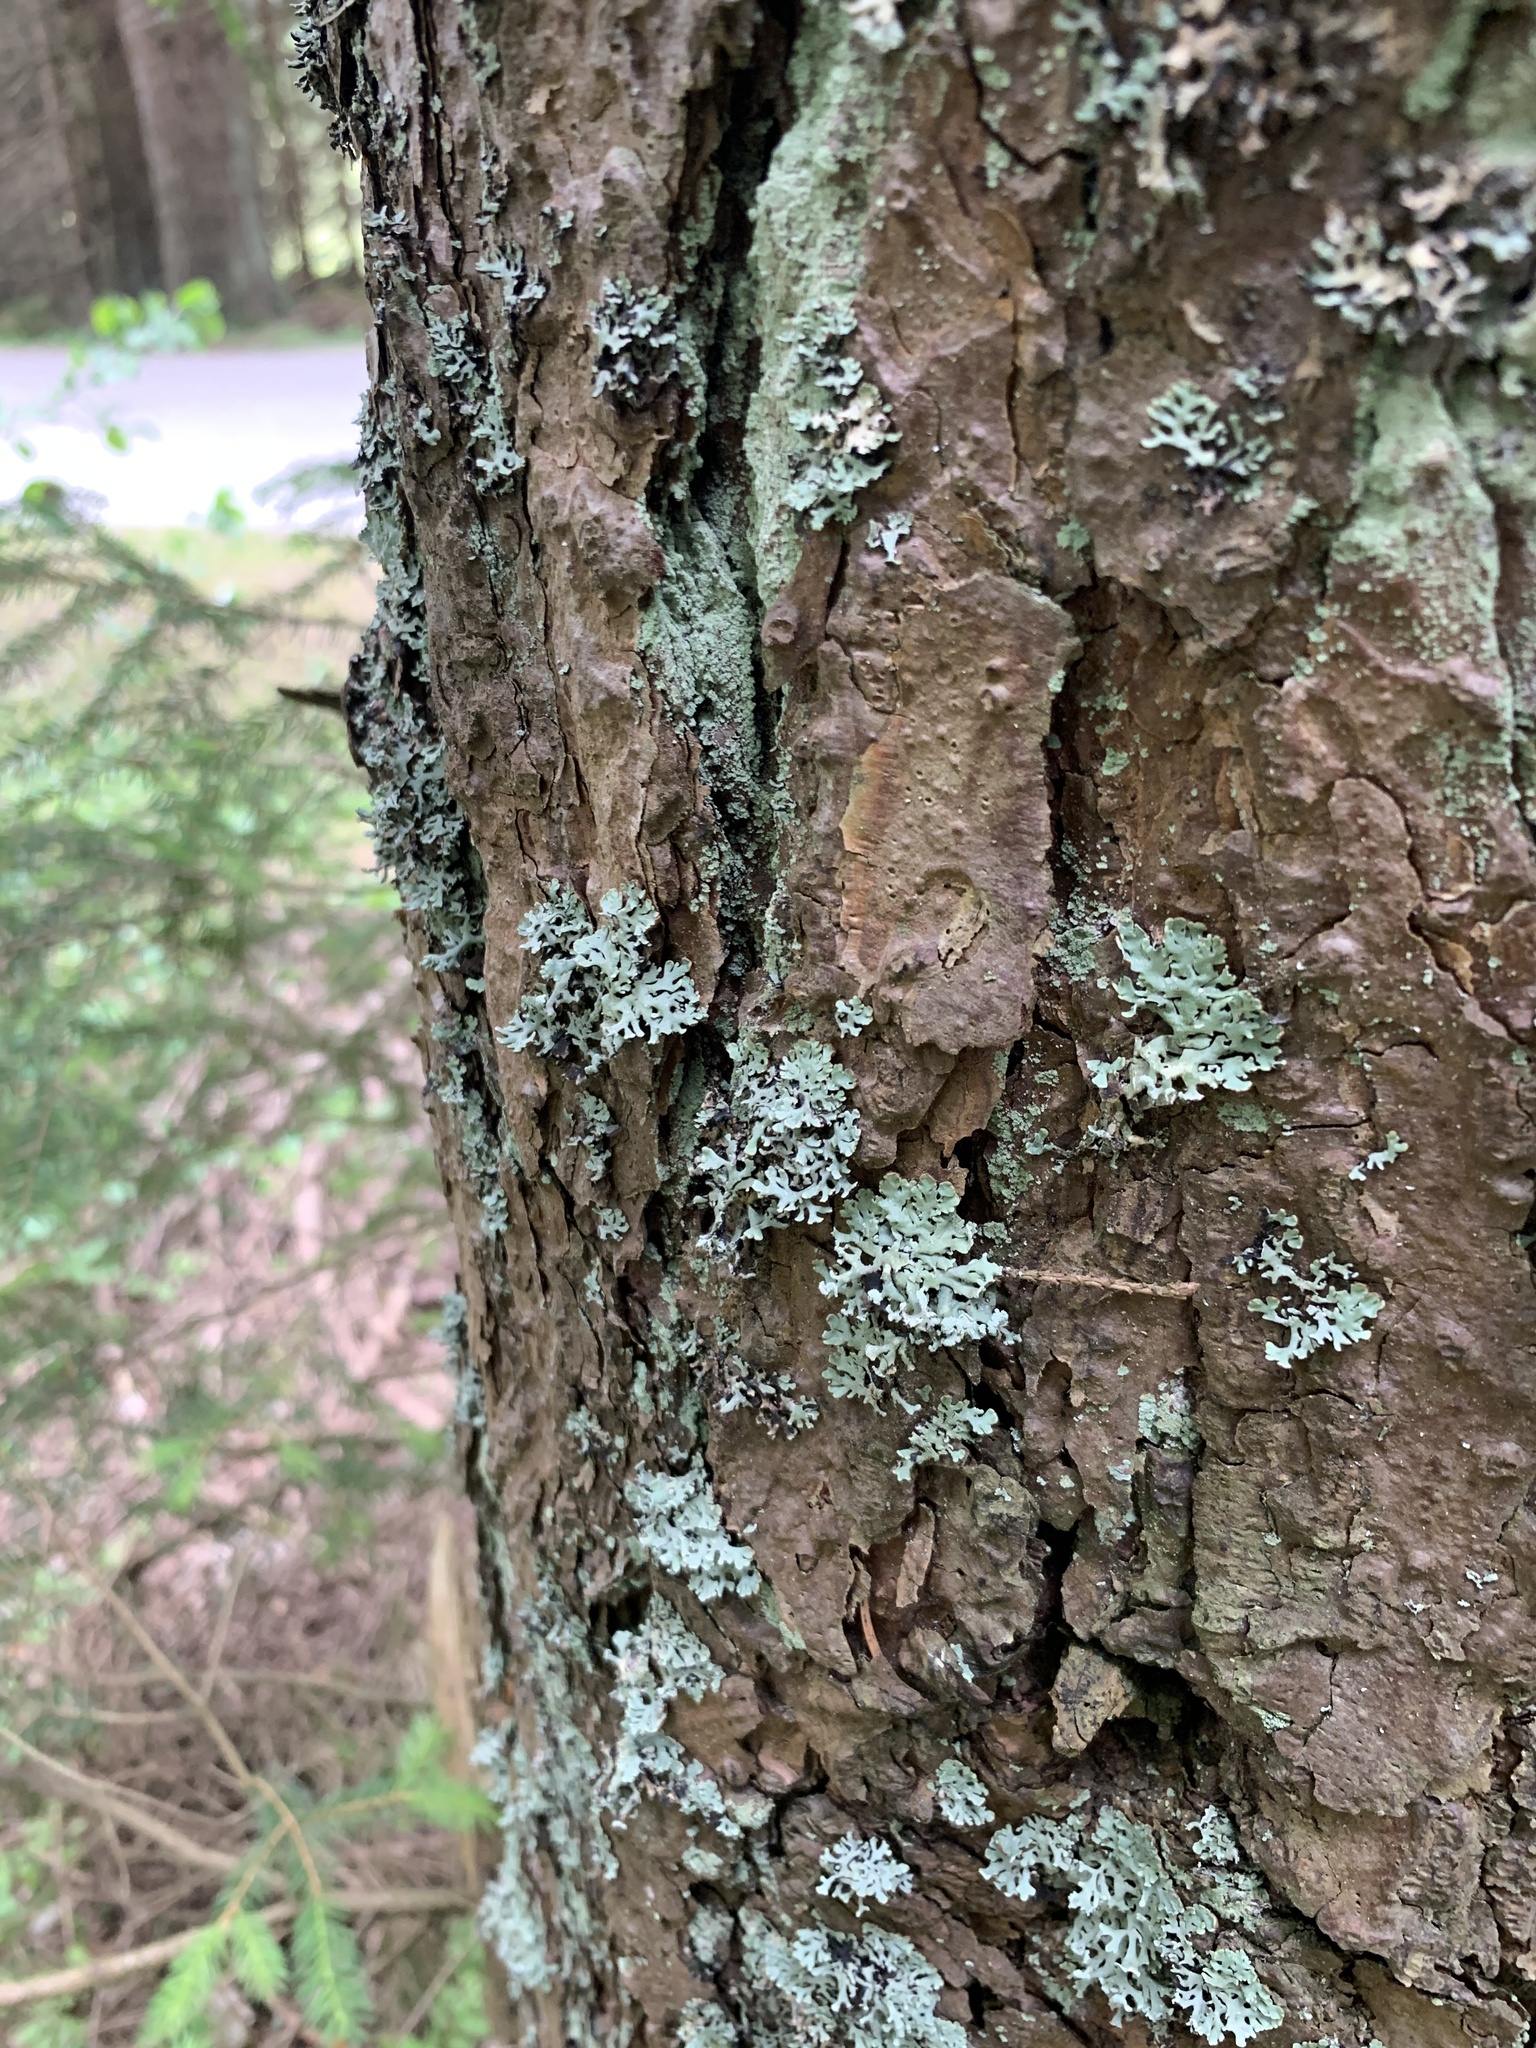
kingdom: Fungi
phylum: Ascomycota
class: Lecanoromycetes
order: Lecanorales
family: Parmeliaceae
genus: Hypogymnia
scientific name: Hypogymnia physodes
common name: Dark crottle
